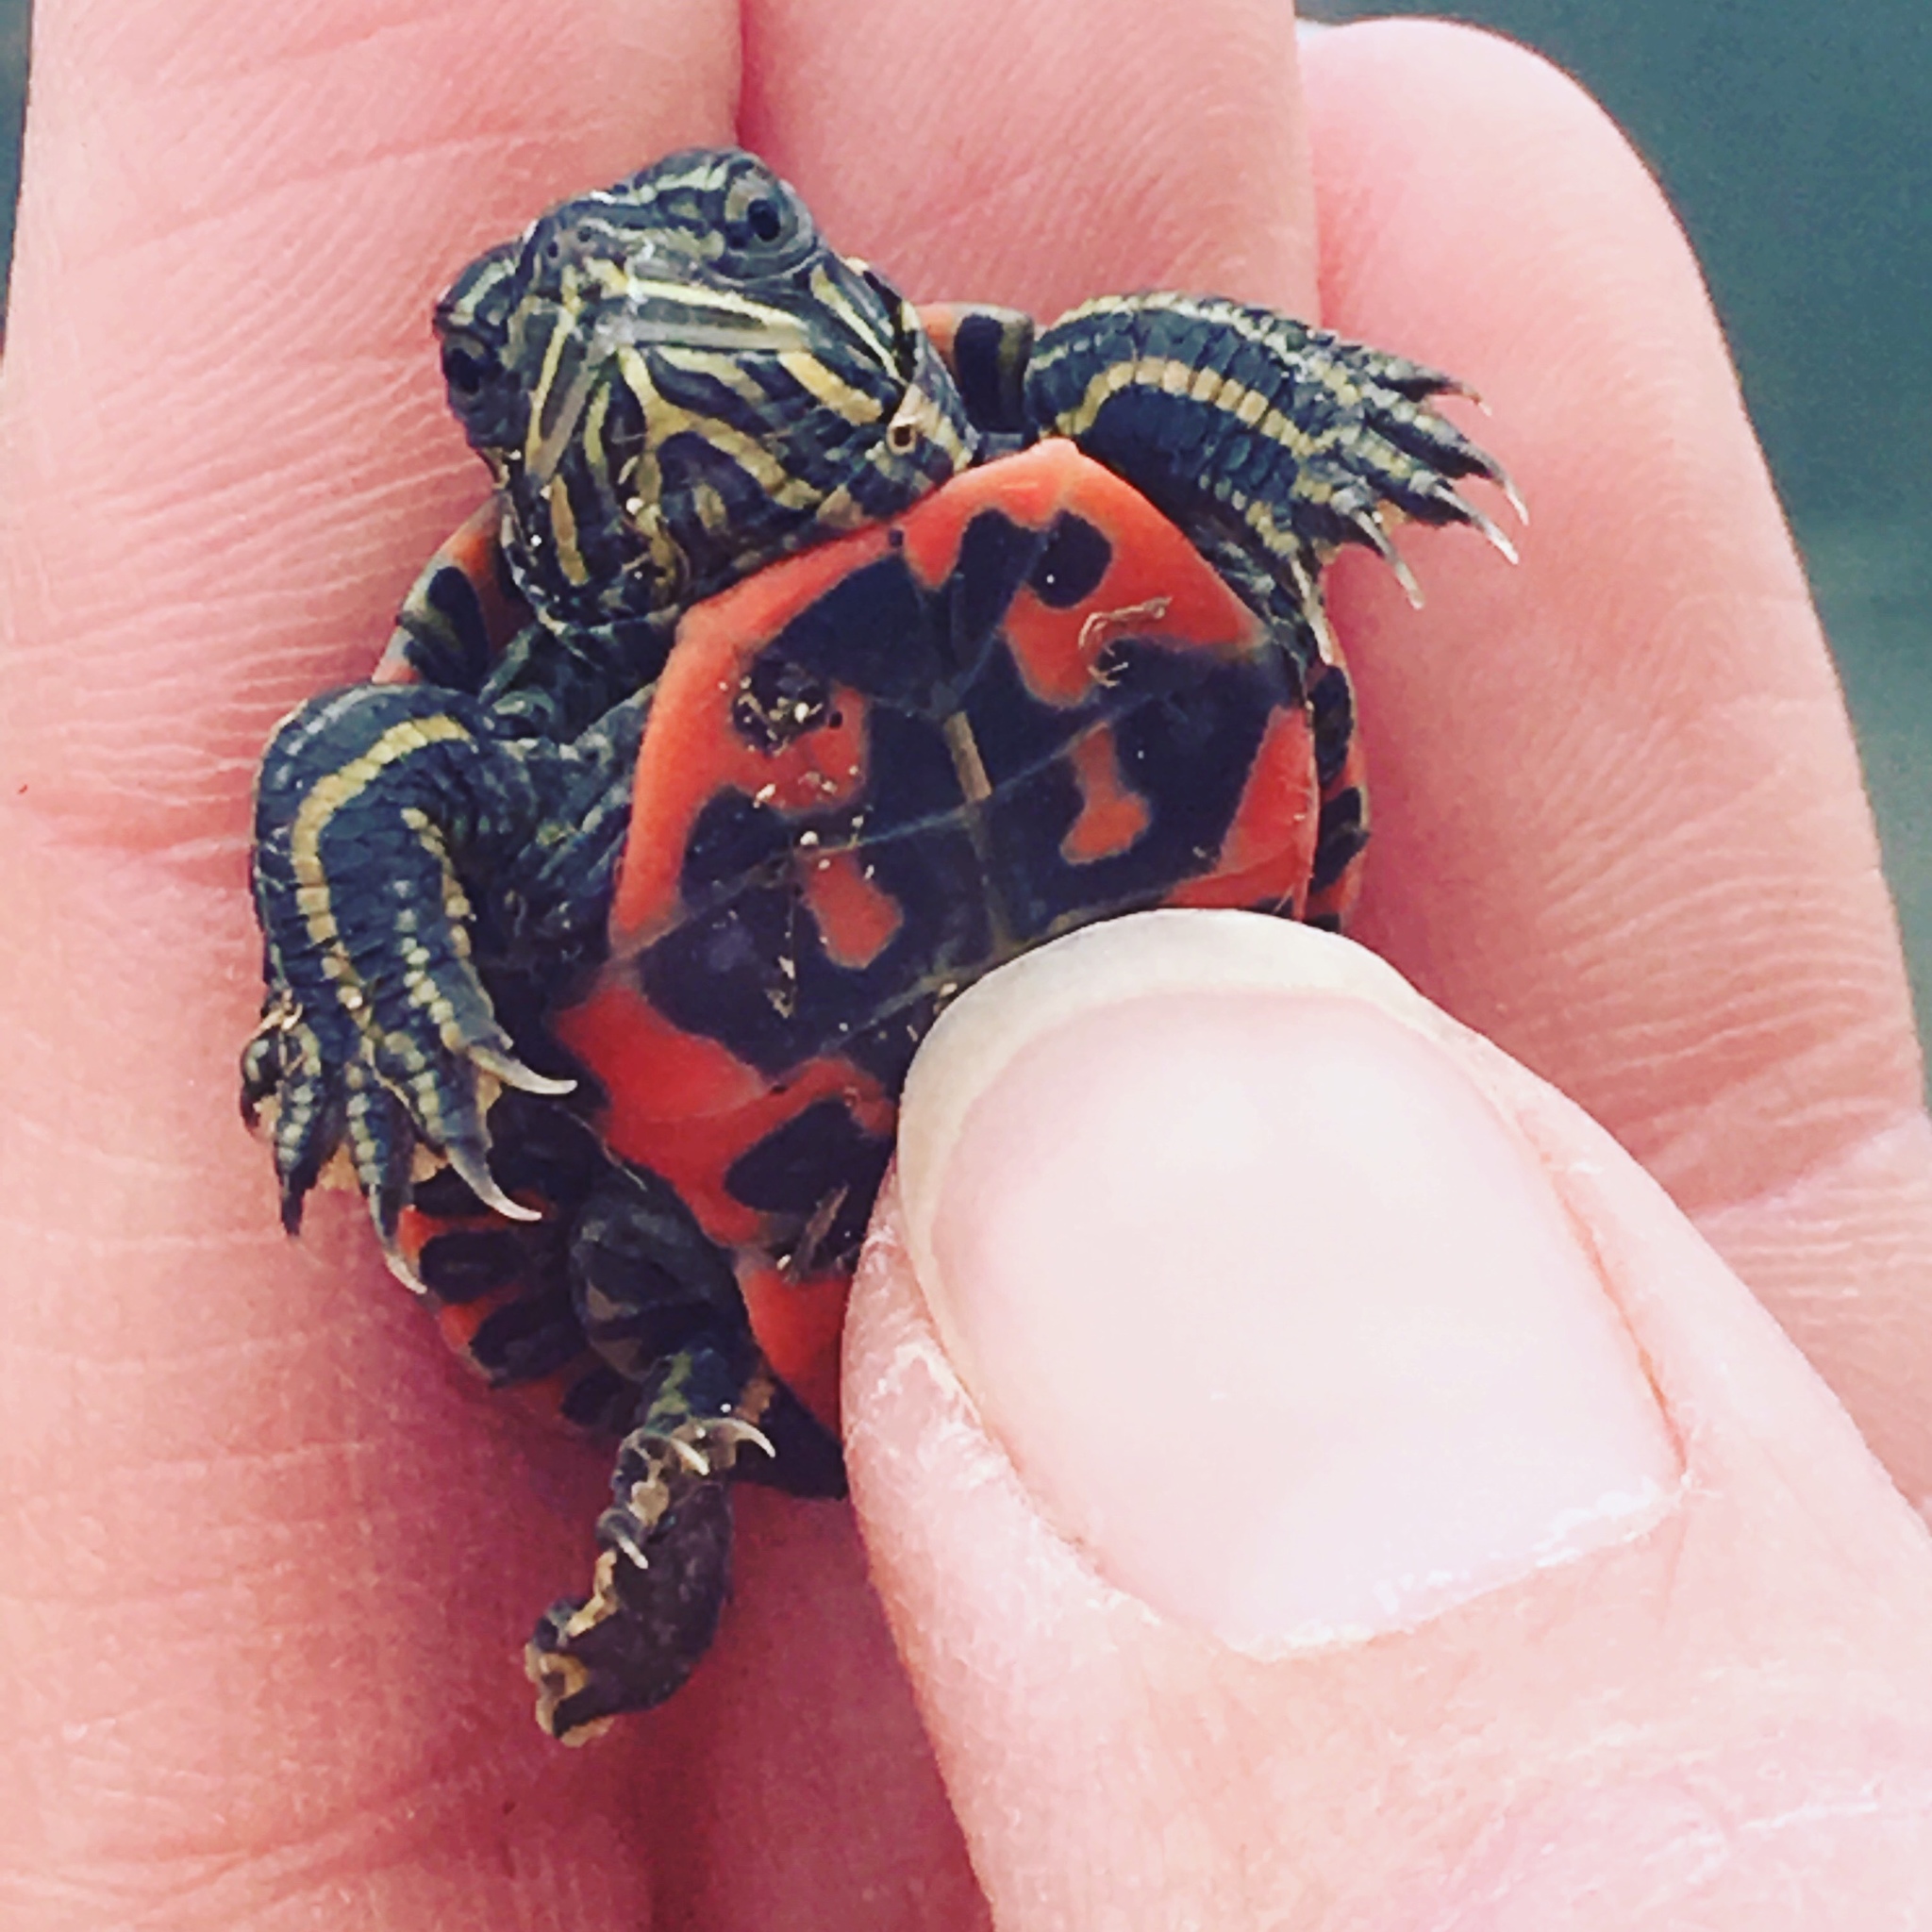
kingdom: Animalia
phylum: Chordata
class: Testudines
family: Emydidae
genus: Chrysemys
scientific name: Chrysemys picta
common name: Painted turtle
